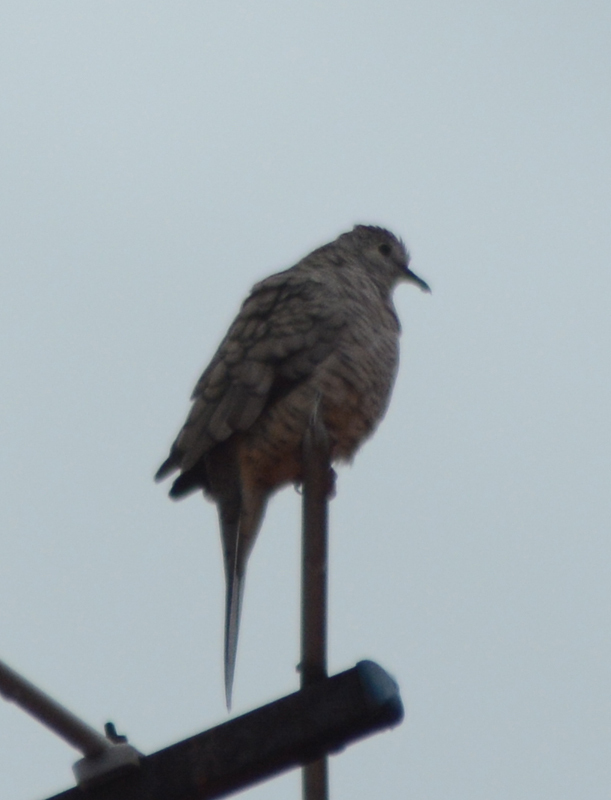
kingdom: Animalia
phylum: Chordata
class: Aves
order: Columbiformes
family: Columbidae
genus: Columbina
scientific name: Columbina inca
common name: Inca dove
